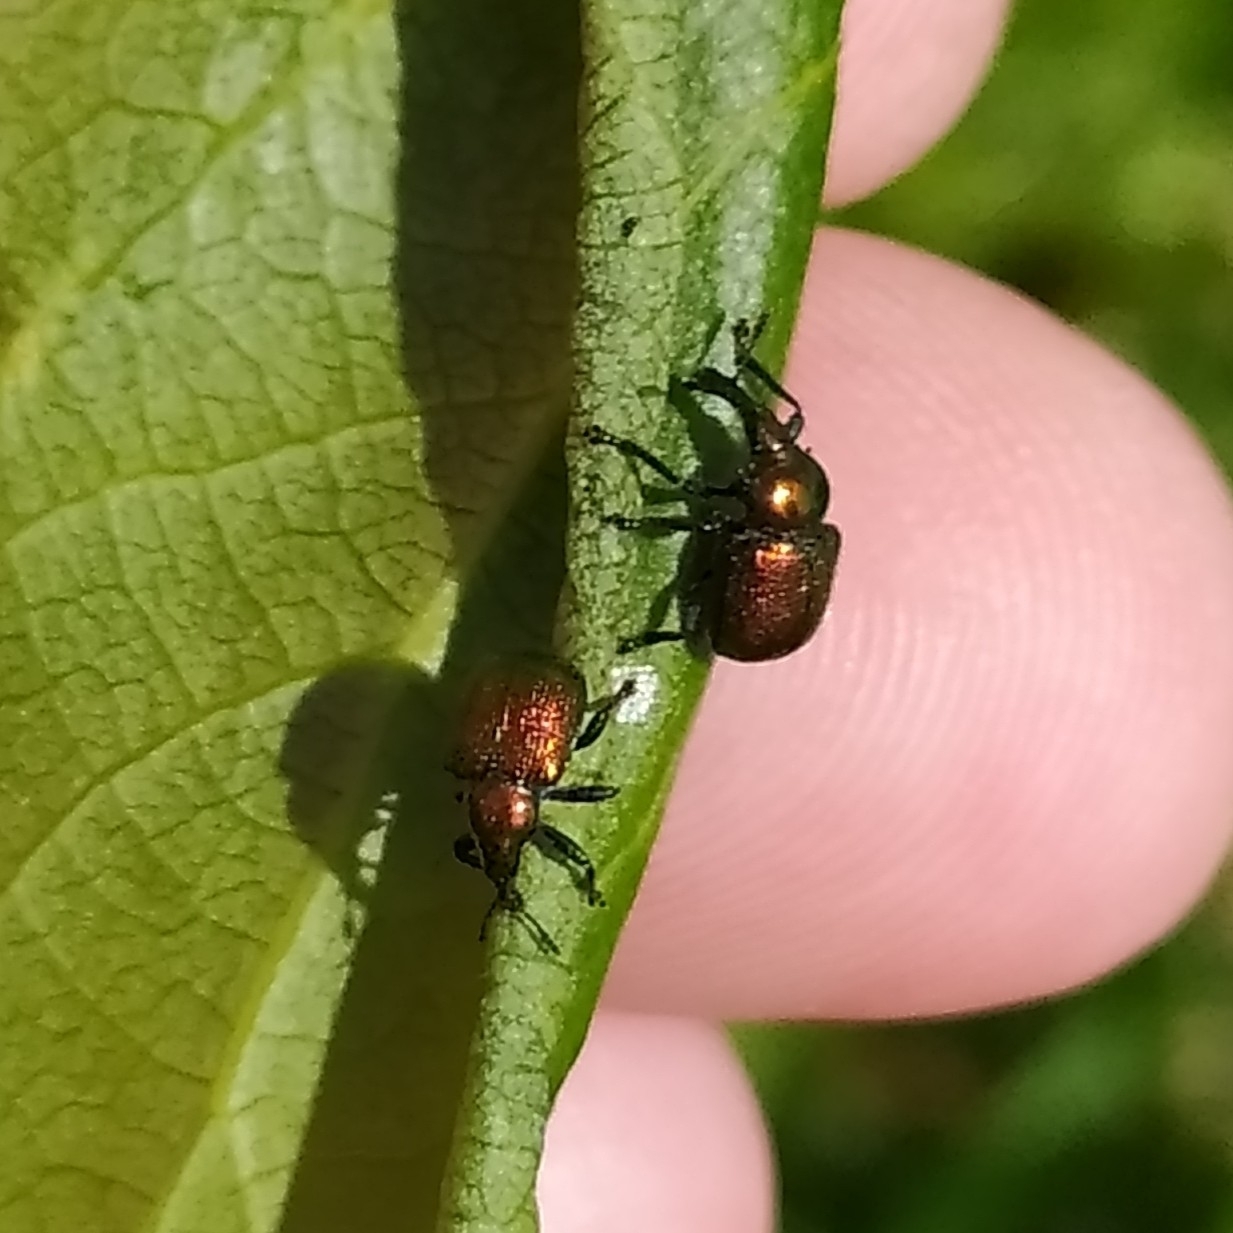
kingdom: Animalia
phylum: Arthropoda
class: Insecta
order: Coleoptera
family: Attelabidae
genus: Byctiscus
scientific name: Byctiscus populi
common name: Leaf-rolling weevil
